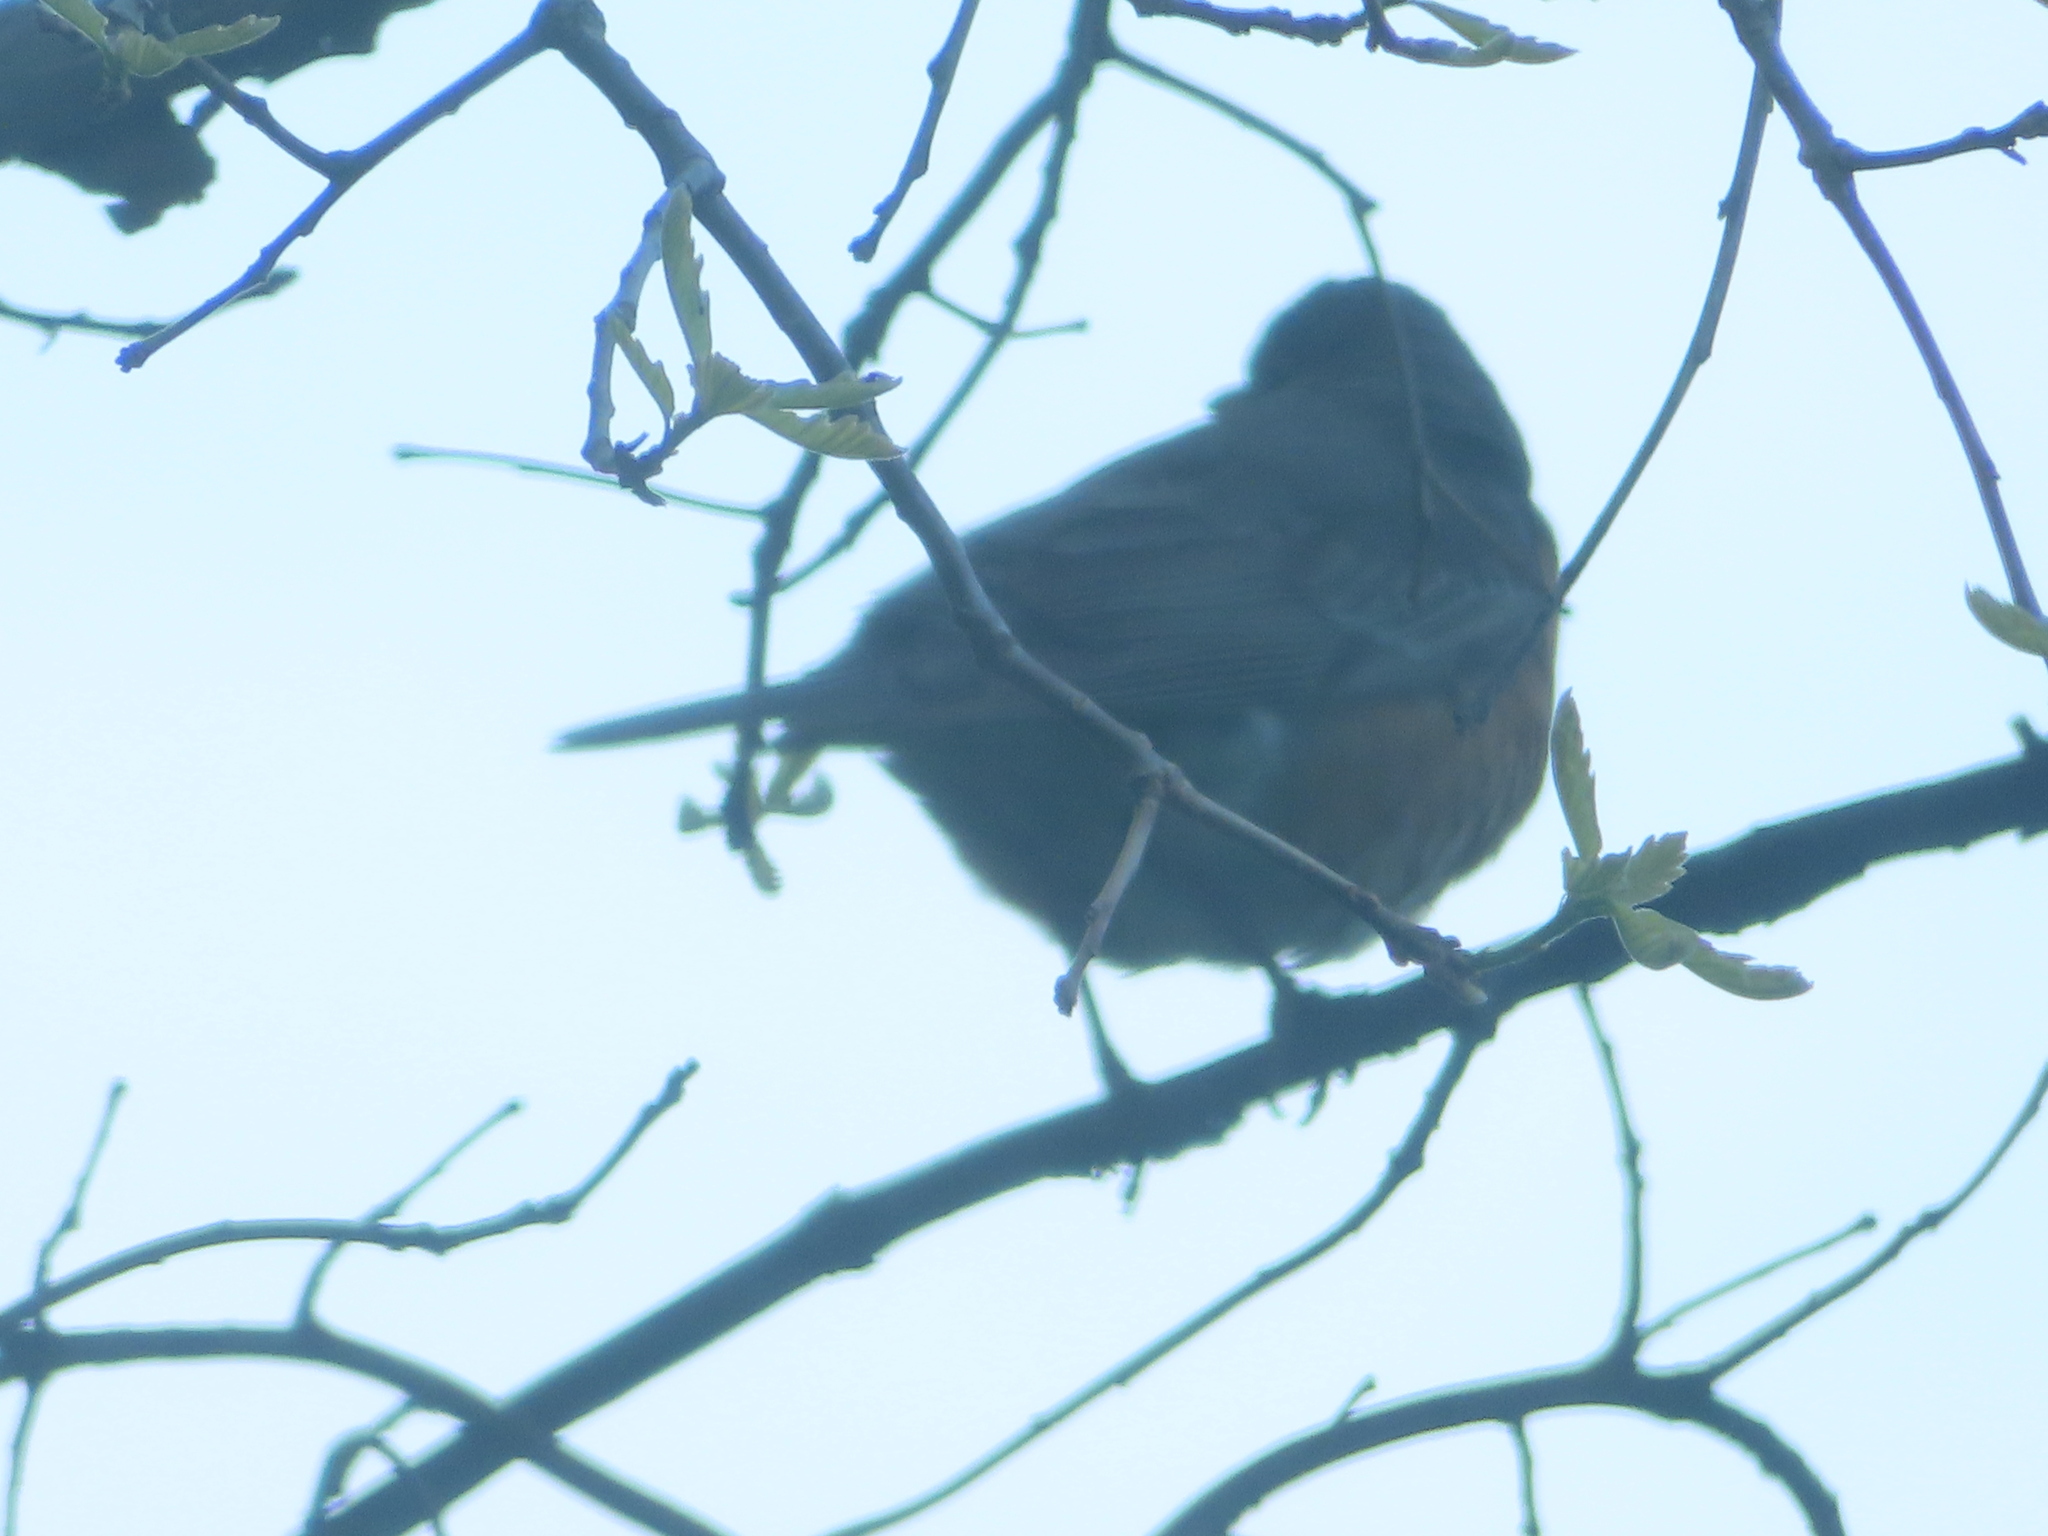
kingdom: Animalia
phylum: Chordata
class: Aves
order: Passeriformes
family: Turdidae
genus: Turdus
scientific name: Turdus migratorius
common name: American robin
